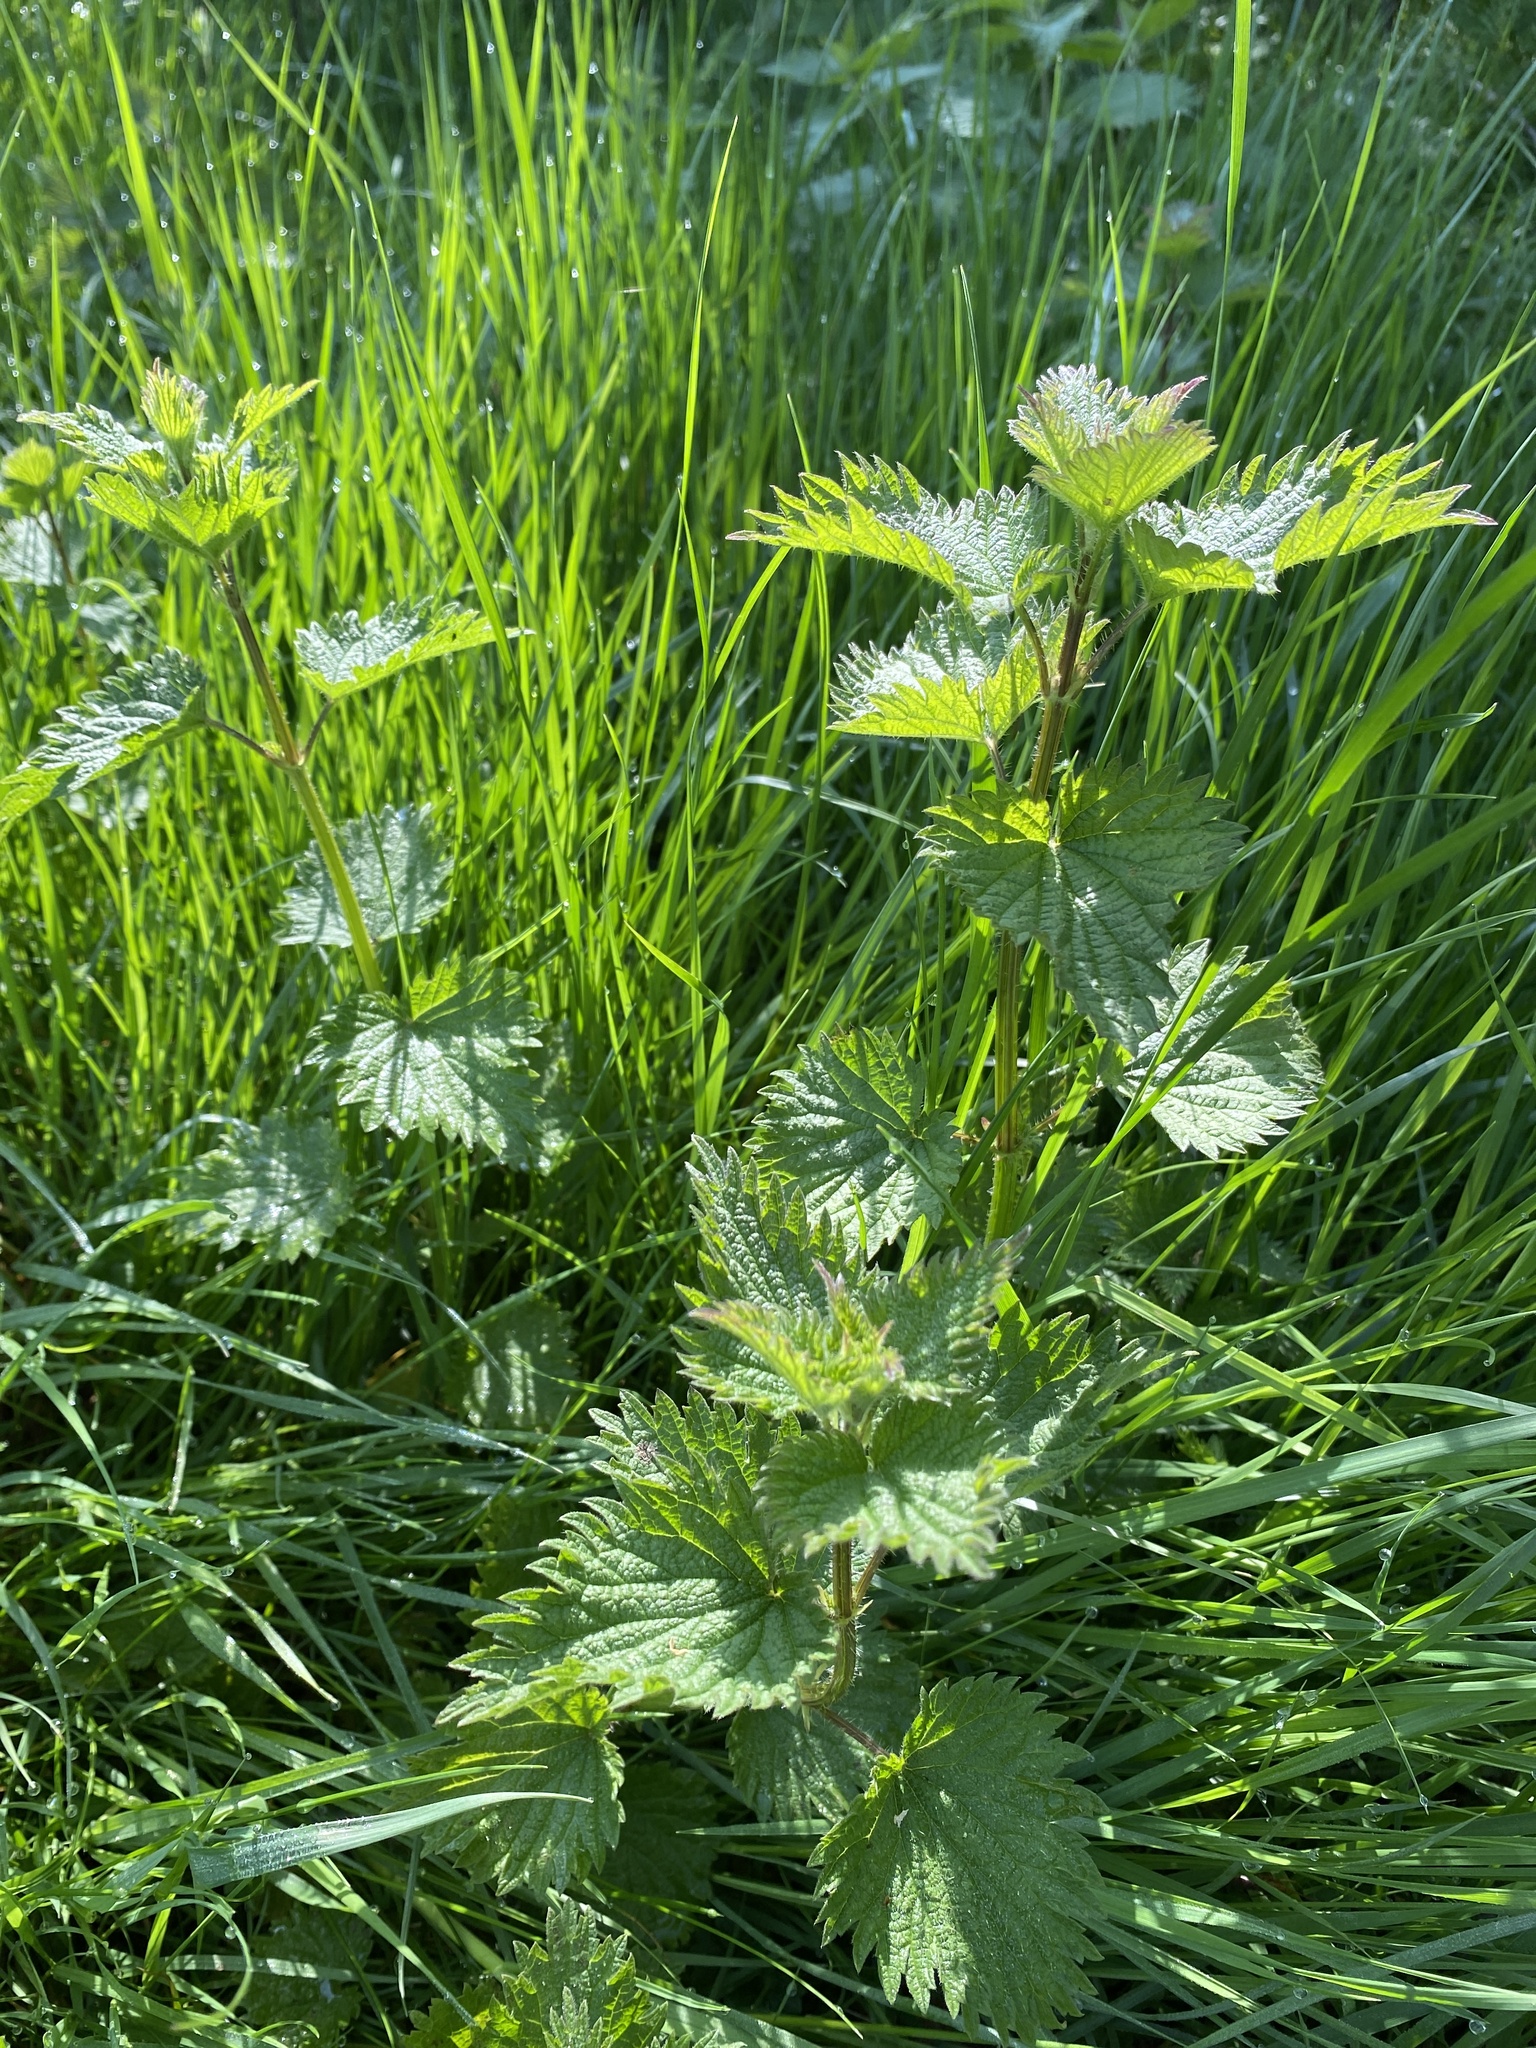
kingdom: Plantae
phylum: Tracheophyta
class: Magnoliopsida
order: Rosales
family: Urticaceae
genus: Urtica
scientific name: Urtica dioica
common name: Common nettle
